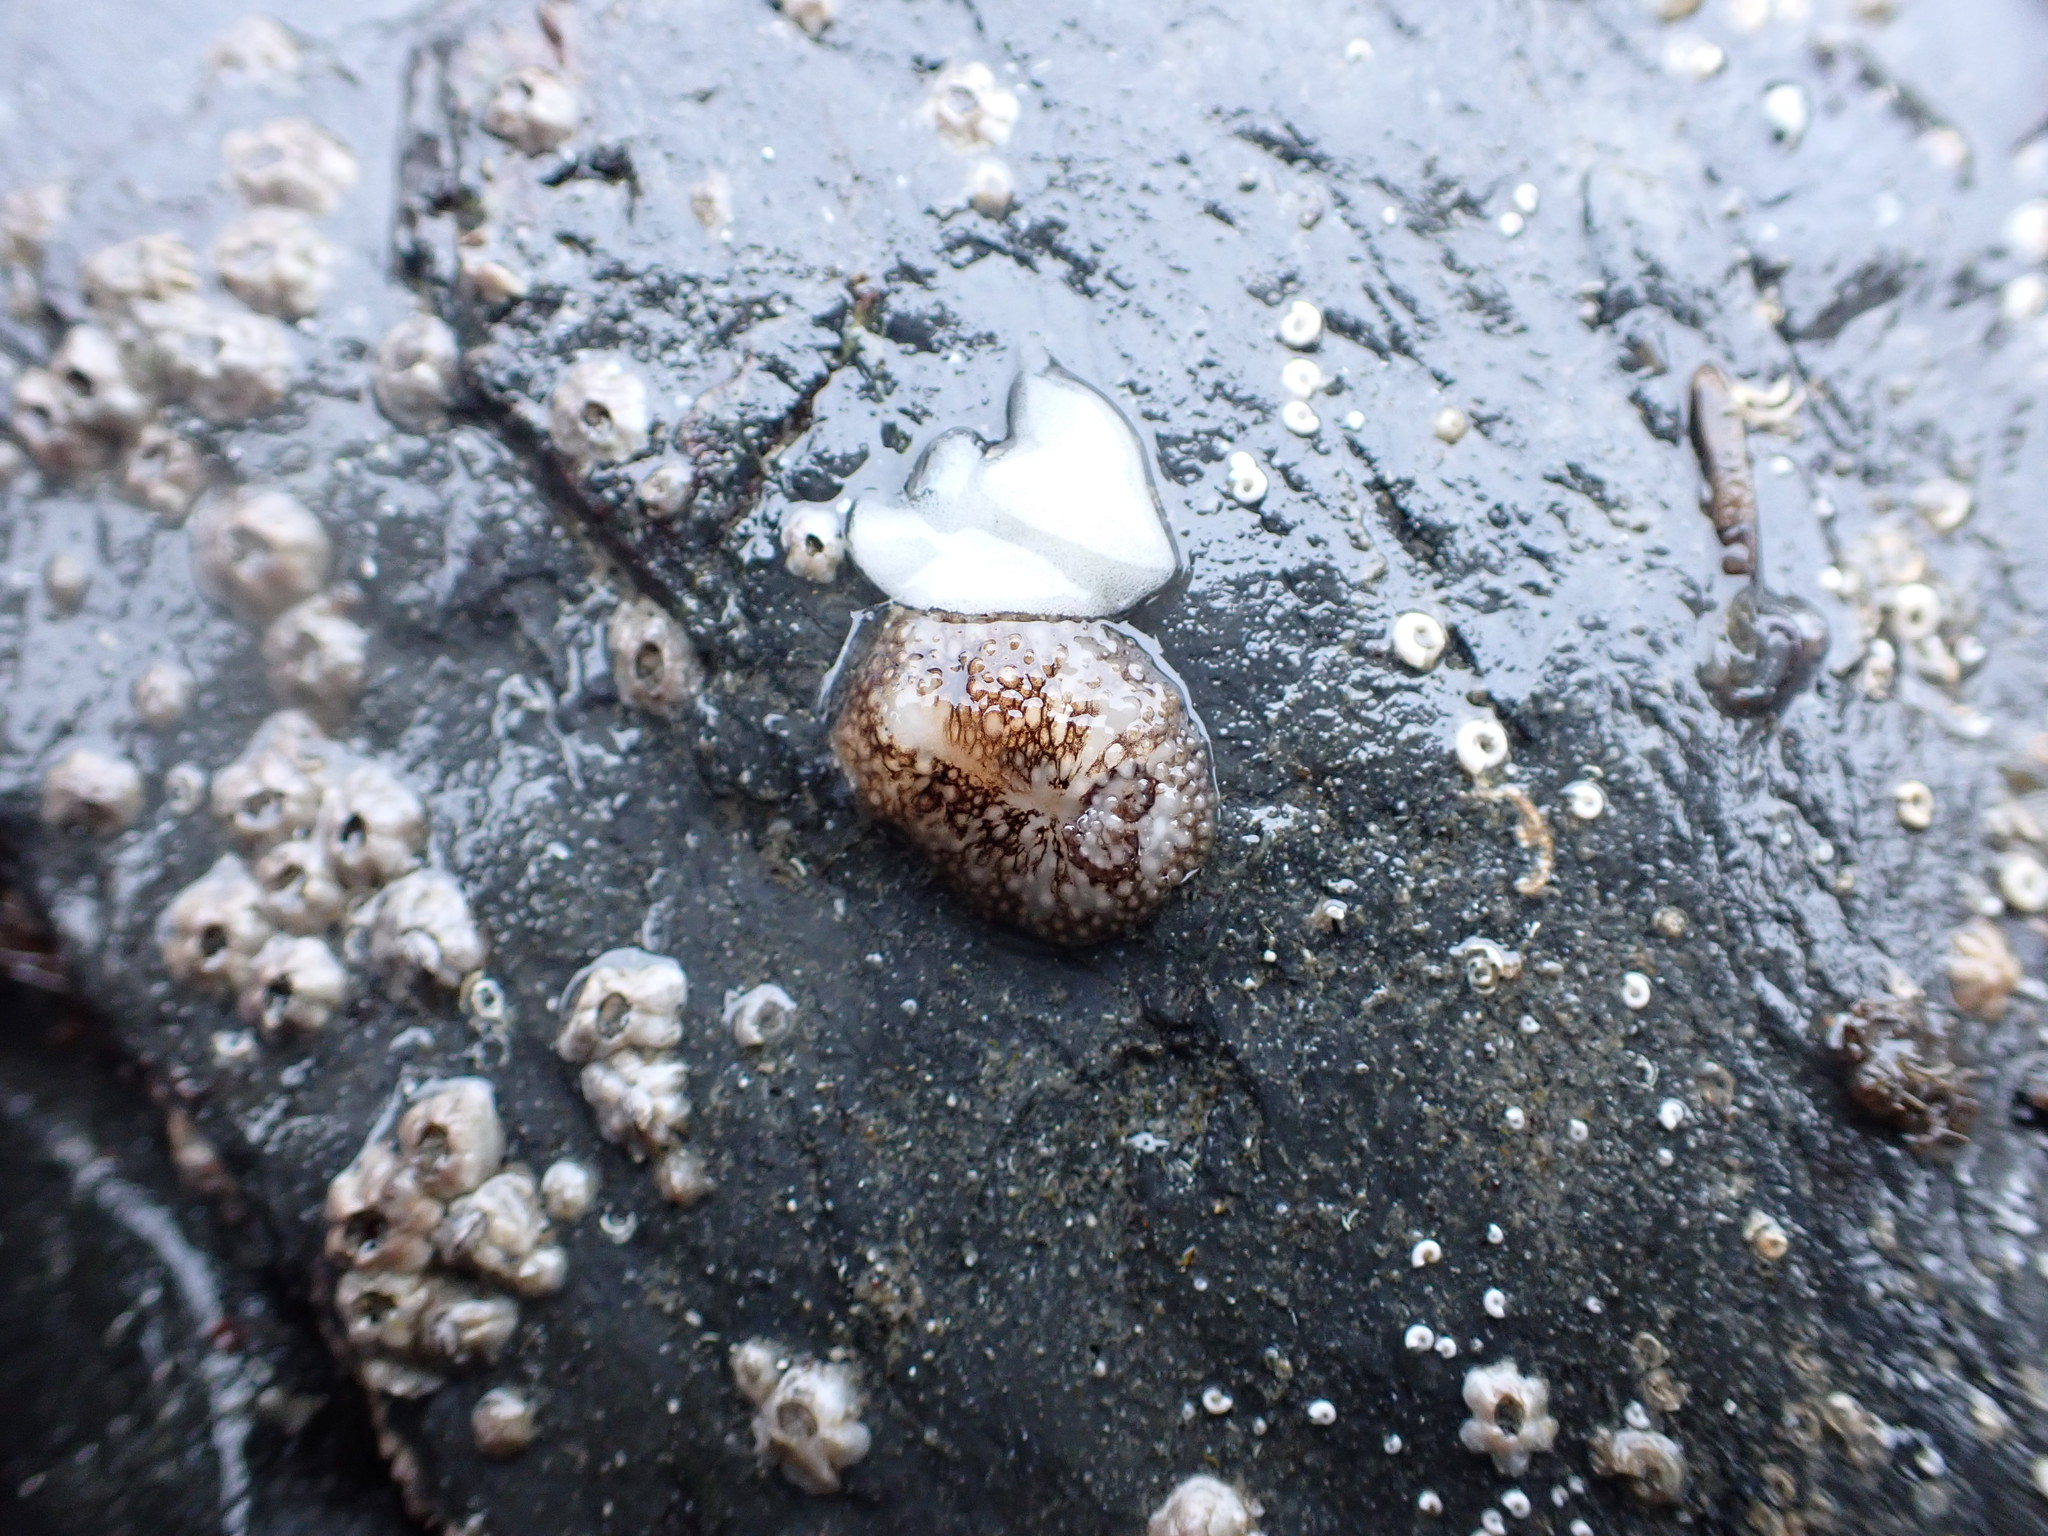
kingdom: Animalia
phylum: Mollusca
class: Gastropoda
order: Nudibranchia
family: Onchidorididae
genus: Onchidoris
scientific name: Onchidoris bilamellata
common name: Barnacle-eating onchidoris
